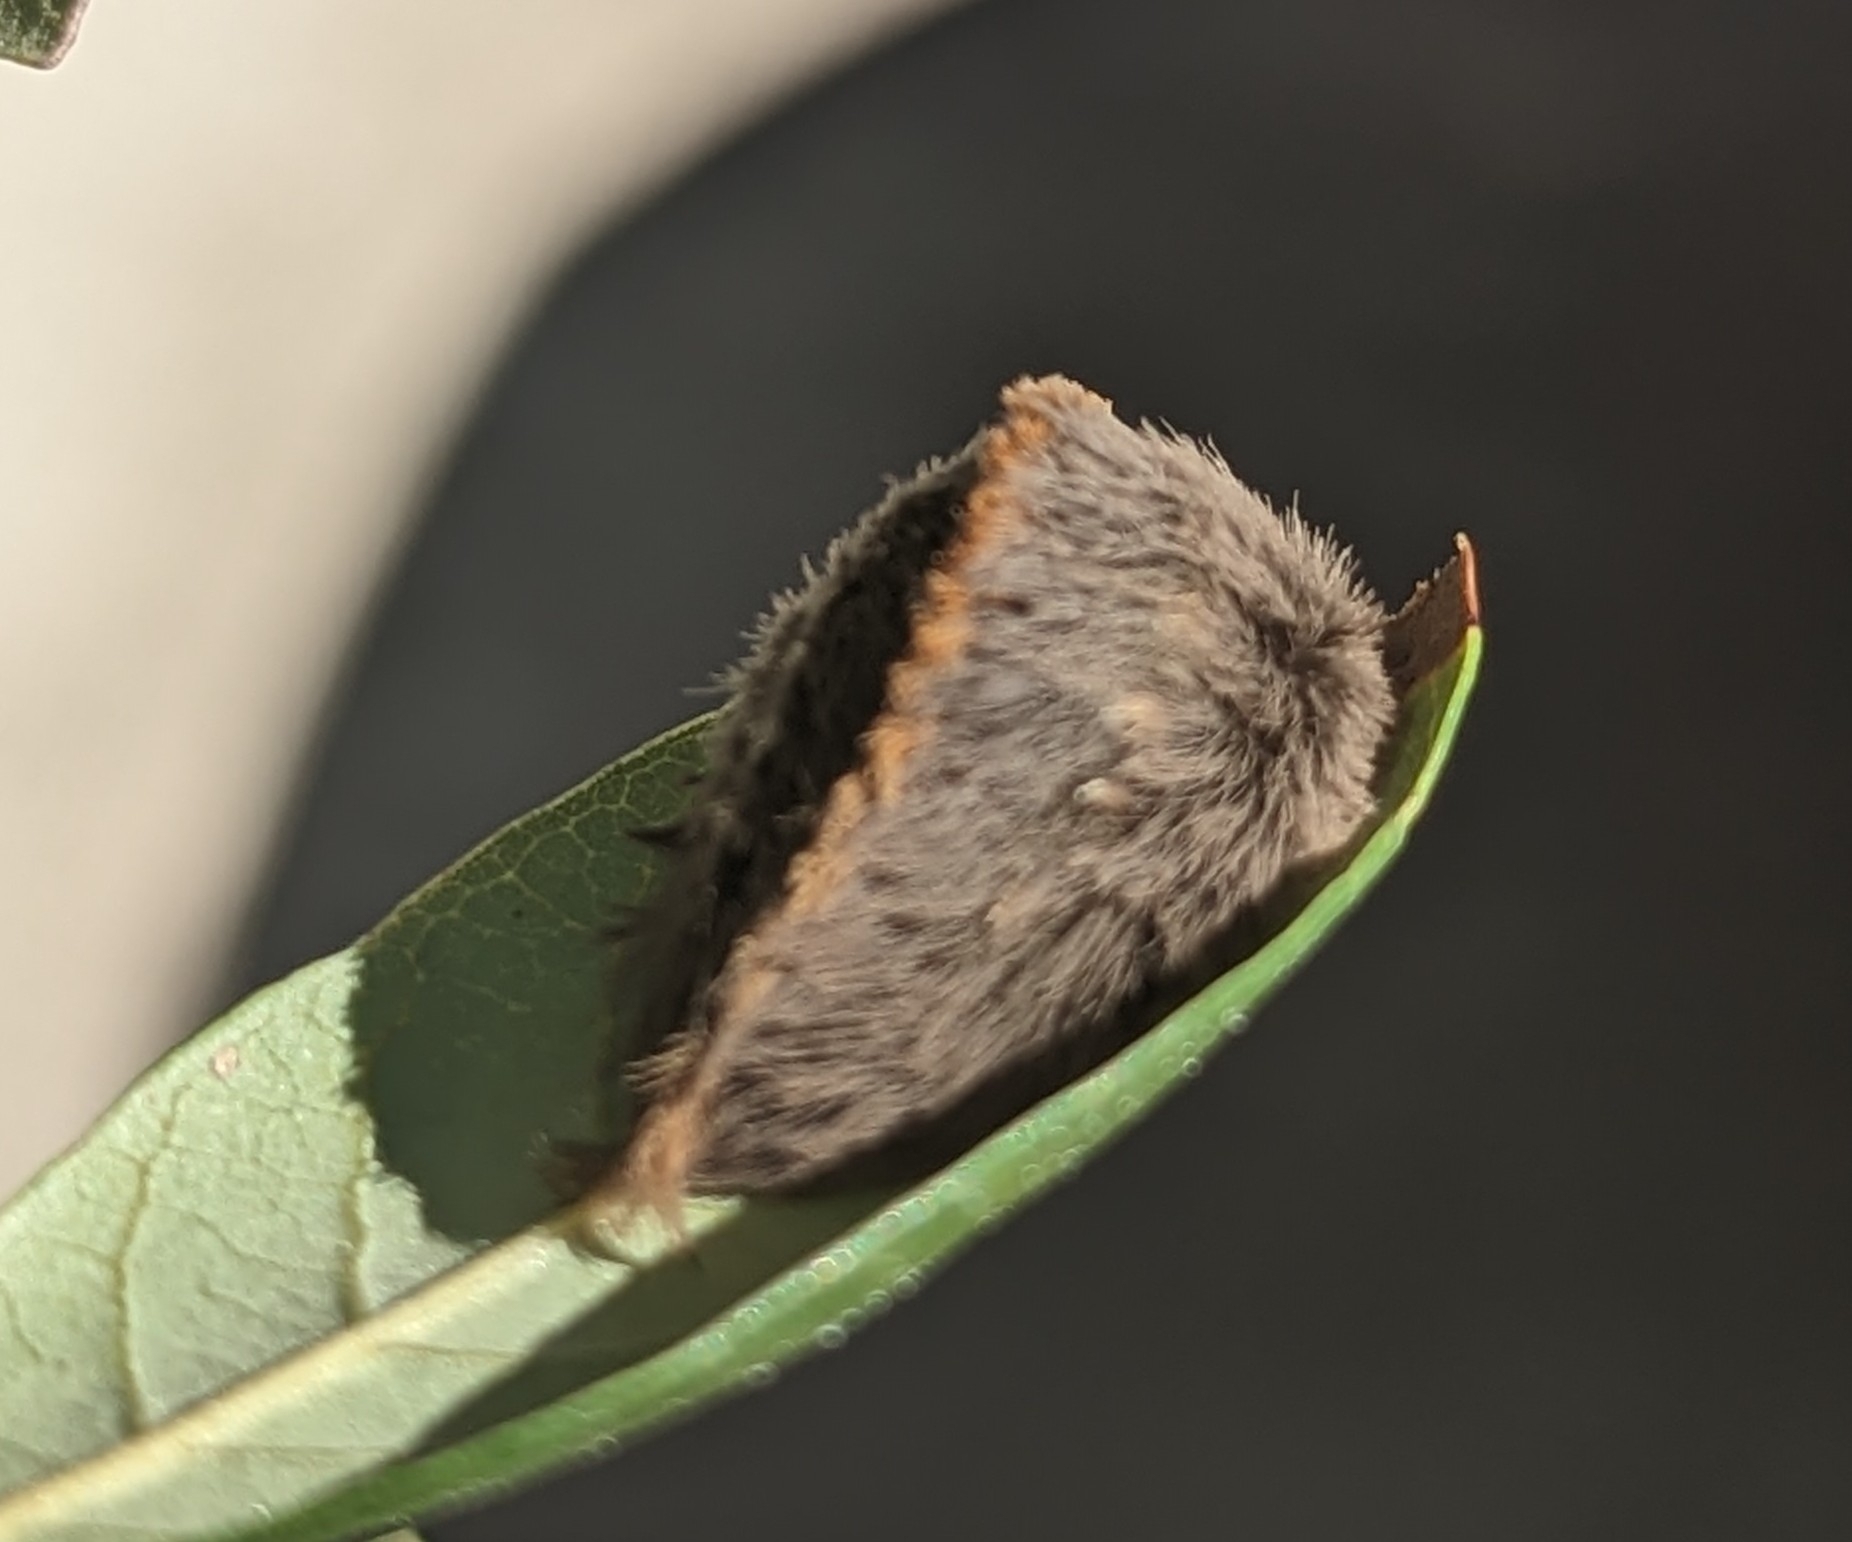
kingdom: Animalia
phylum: Arthropoda
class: Insecta
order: Lepidoptera
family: Megalopygidae
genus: Megalopyge
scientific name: Megalopyge opercularis
